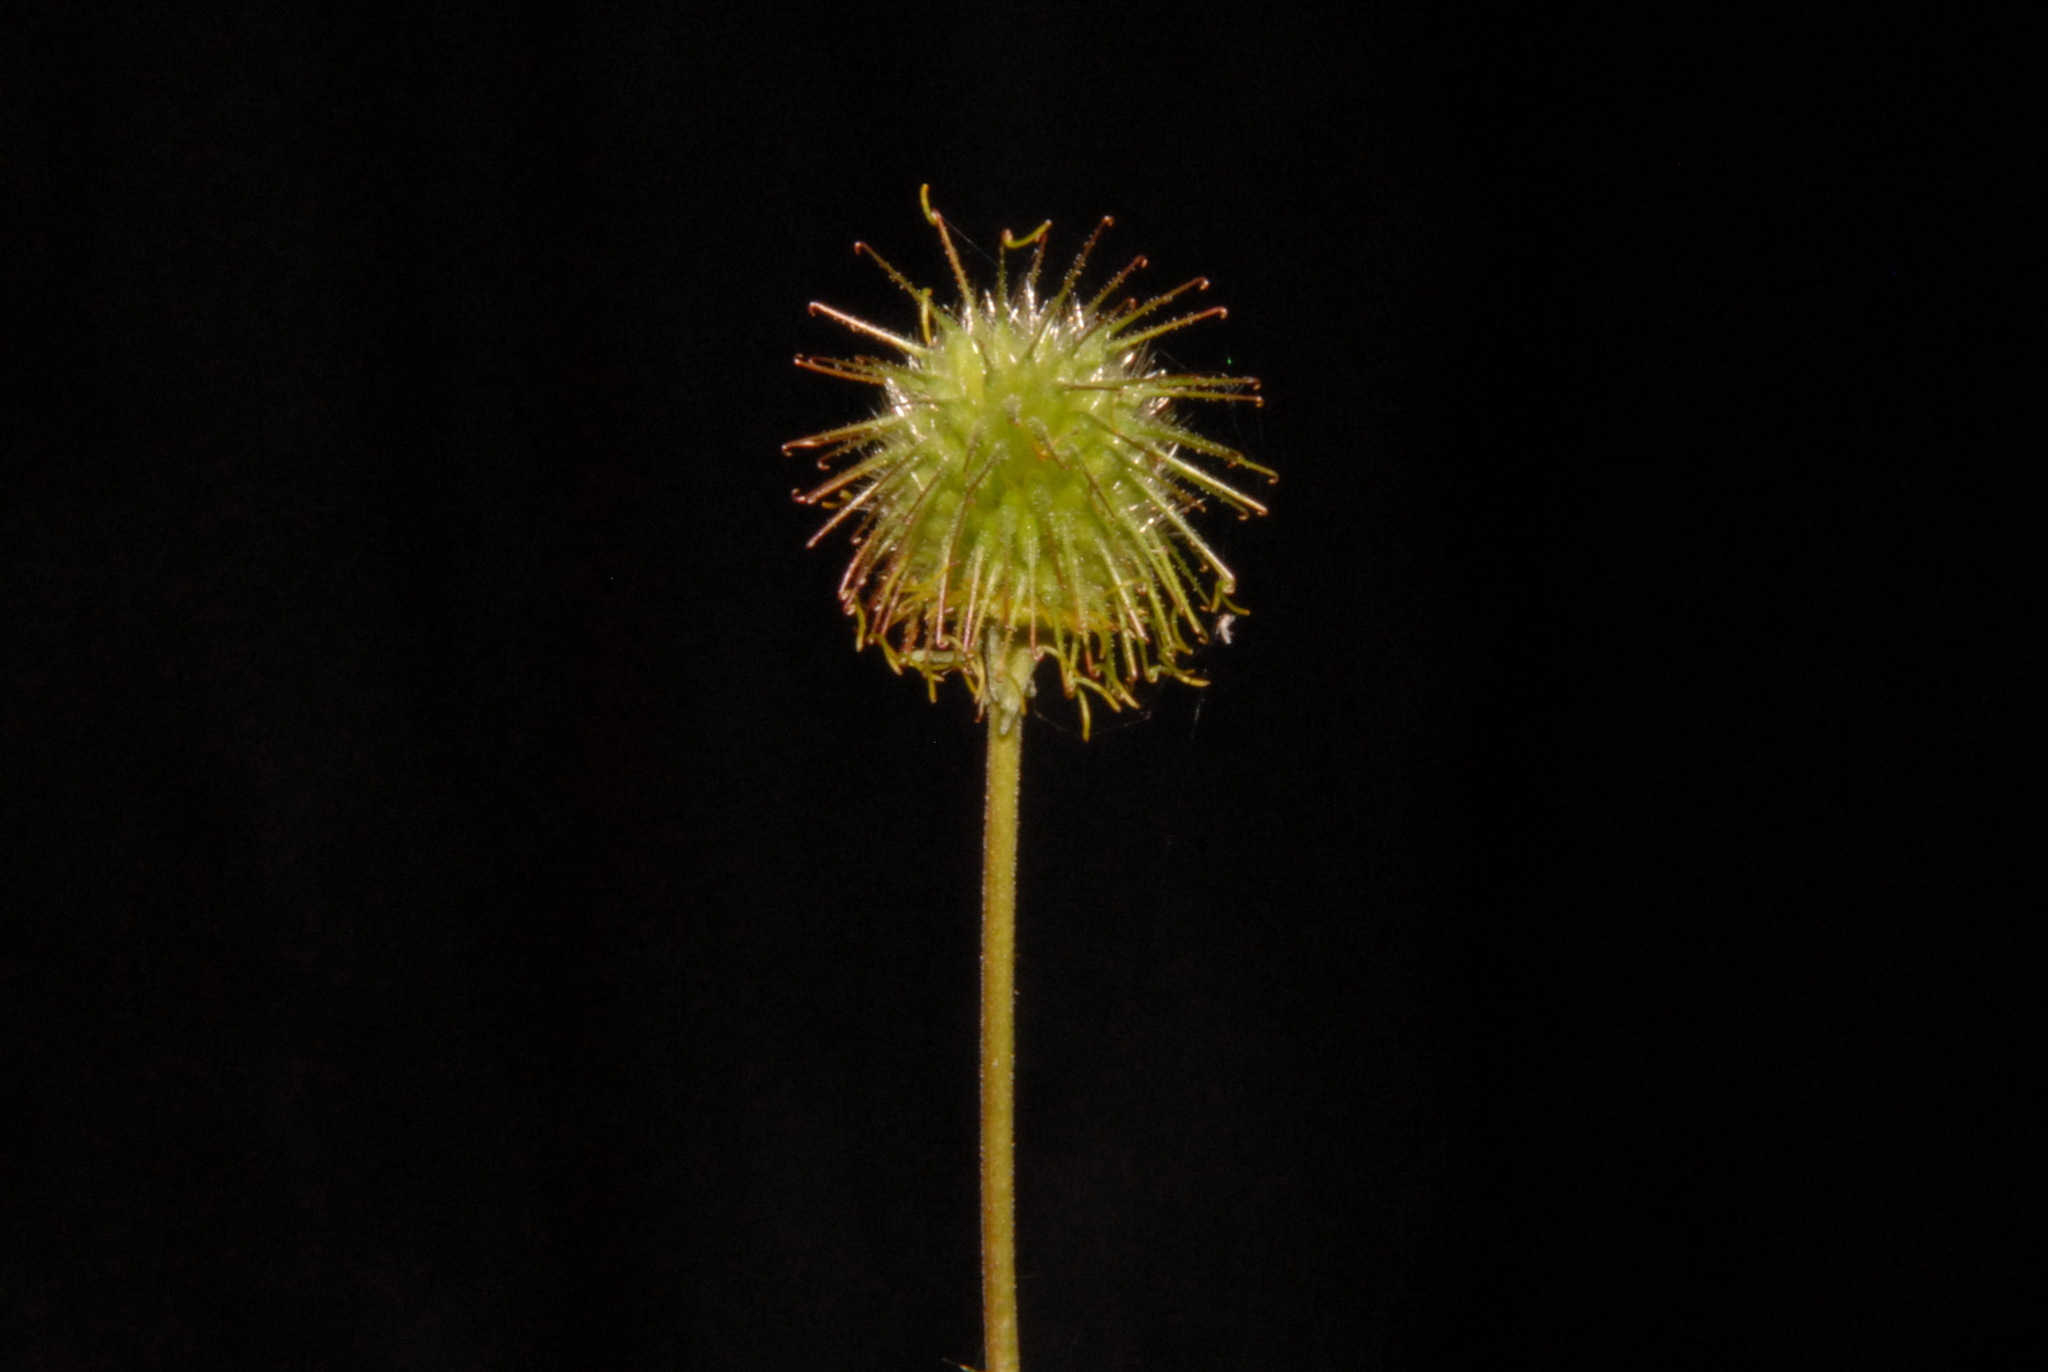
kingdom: Plantae
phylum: Tracheophyta
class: Magnoliopsida
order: Rosales
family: Rosaceae
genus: Geum
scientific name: Geum macrophyllum
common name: Large-leaved avens
